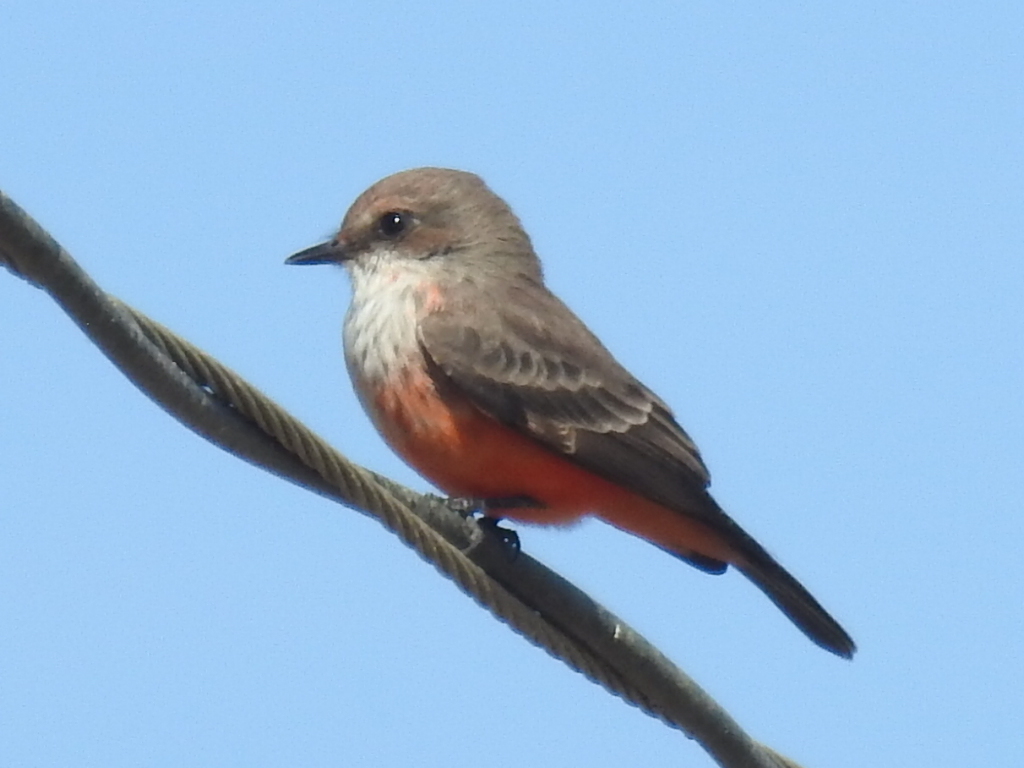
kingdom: Animalia
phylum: Chordata
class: Aves
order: Passeriformes
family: Tyrannidae
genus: Pyrocephalus
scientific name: Pyrocephalus rubinus
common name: Vermilion flycatcher
